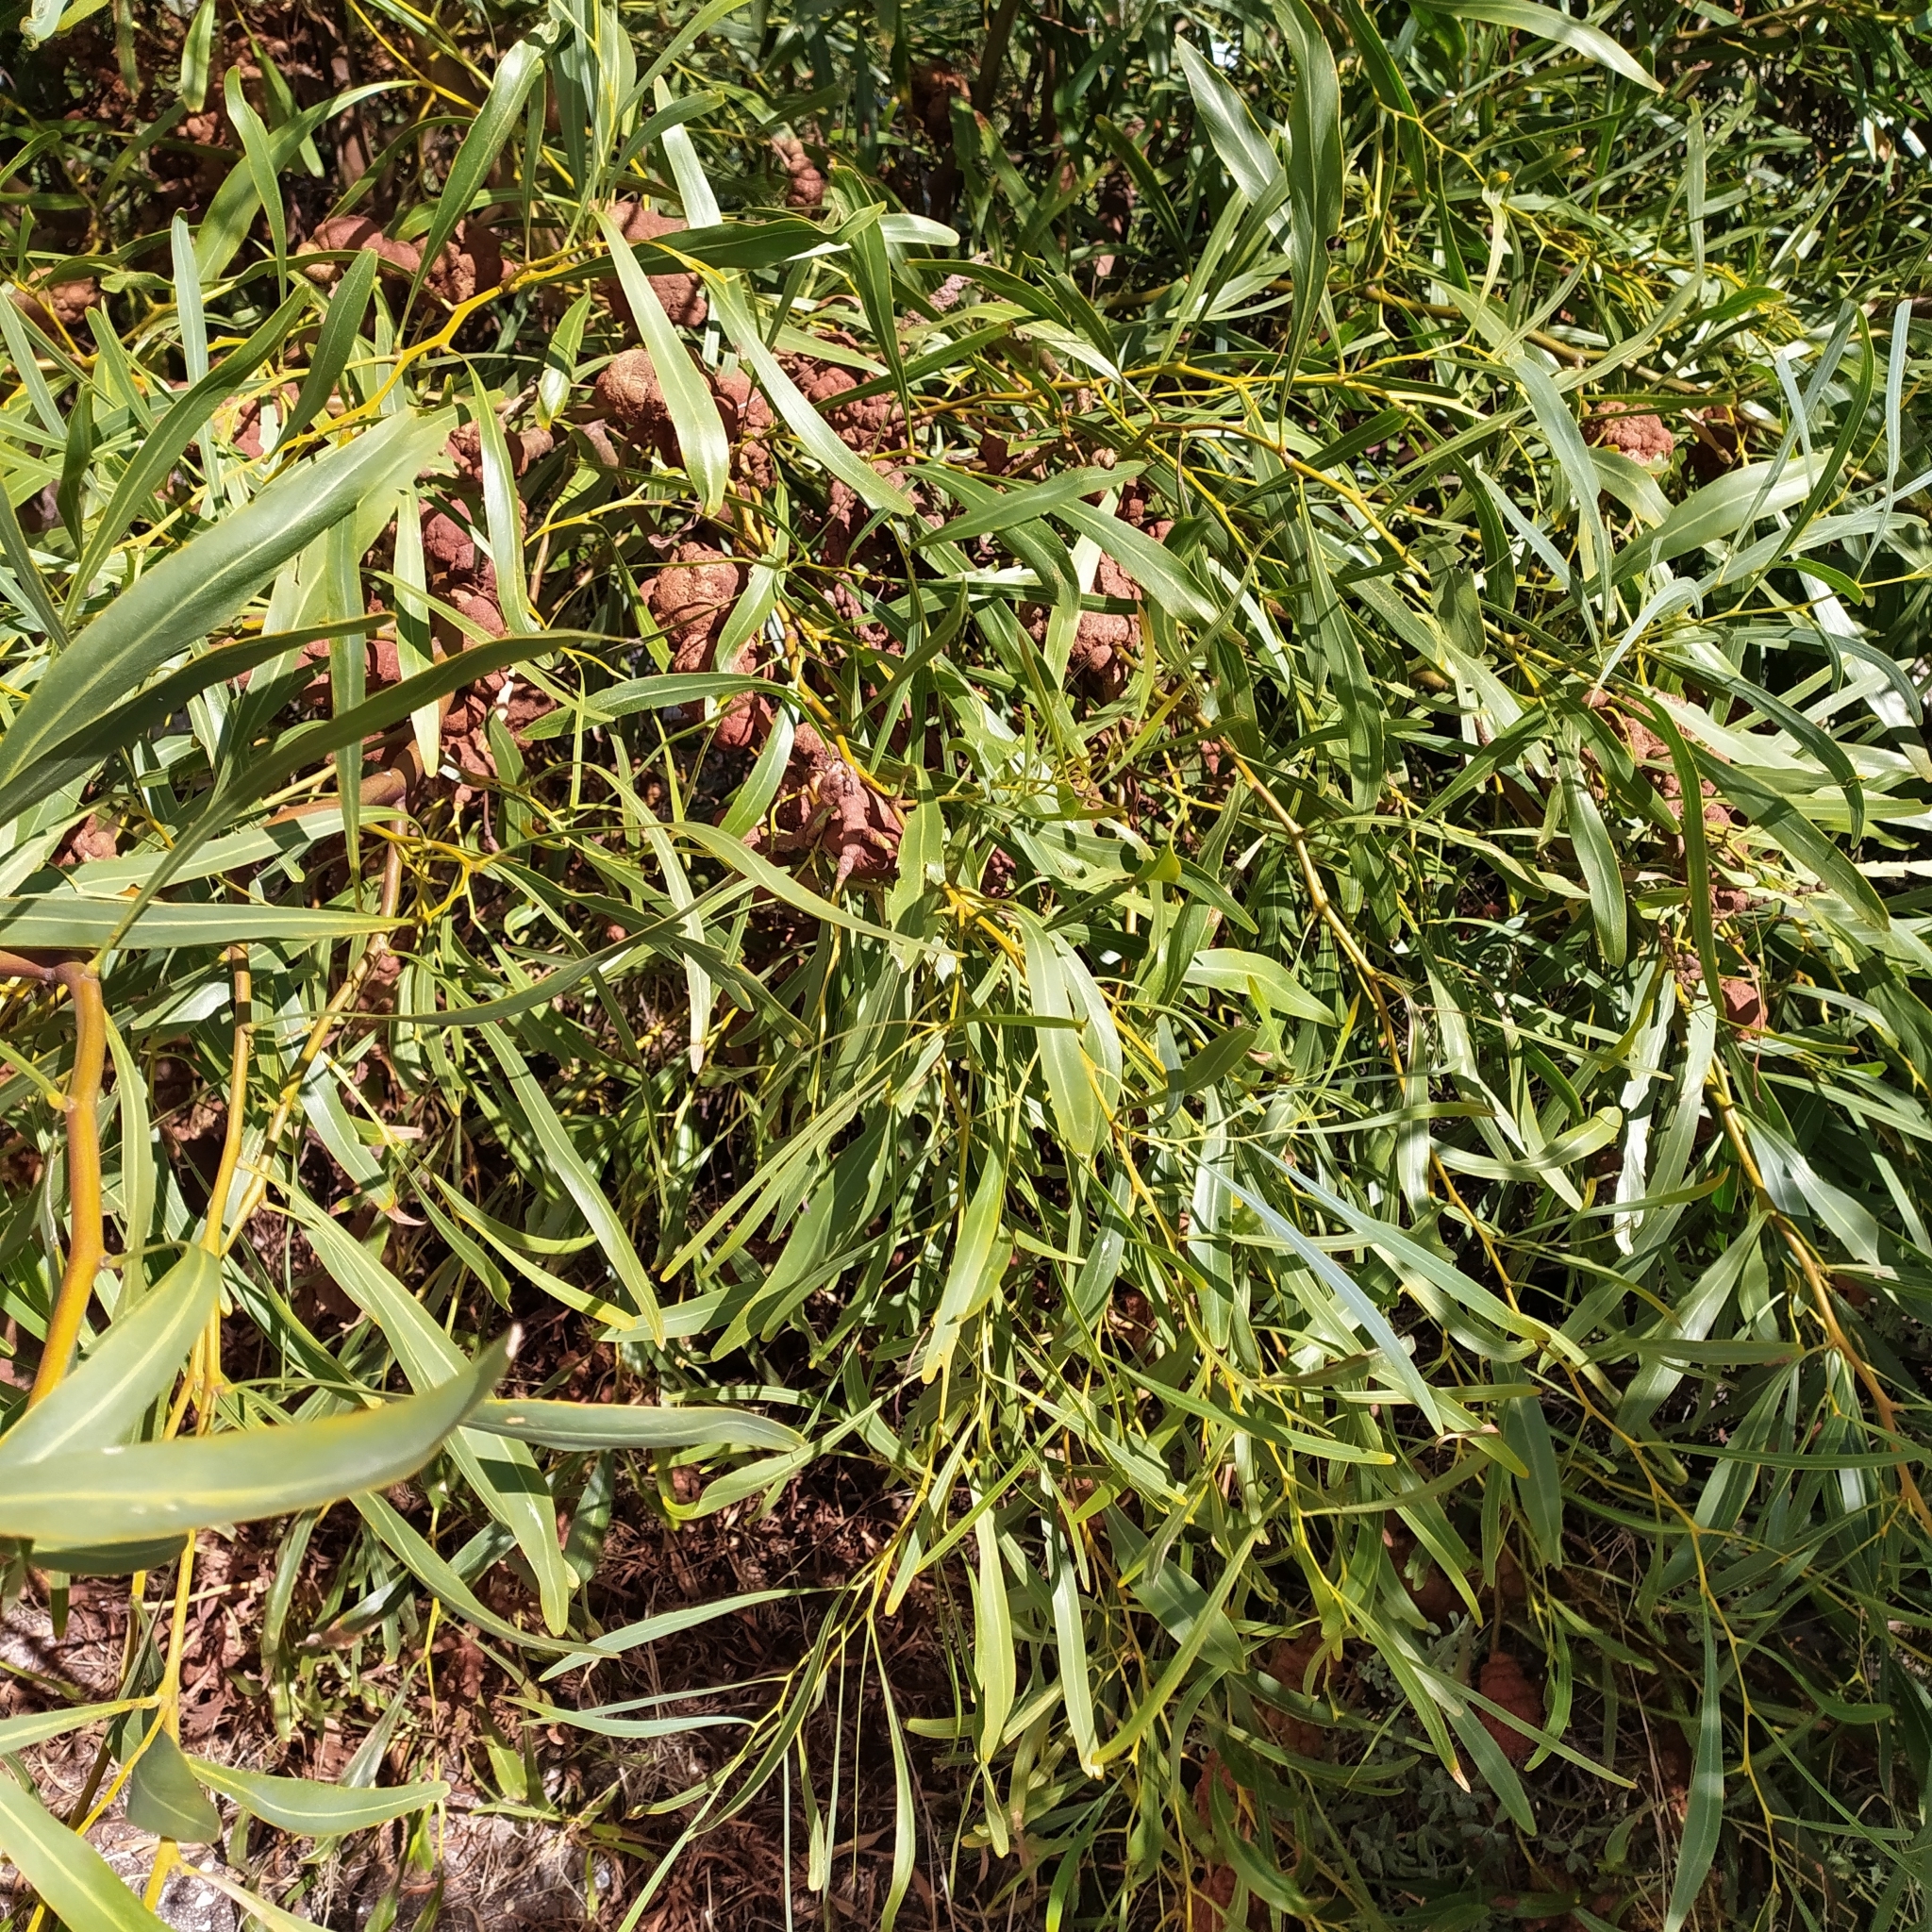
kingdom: Plantae
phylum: Tracheophyta
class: Magnoliopsida
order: Fabales
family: Fabaceae
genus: Acacia
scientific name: Acacia saligna
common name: Orange wattle
